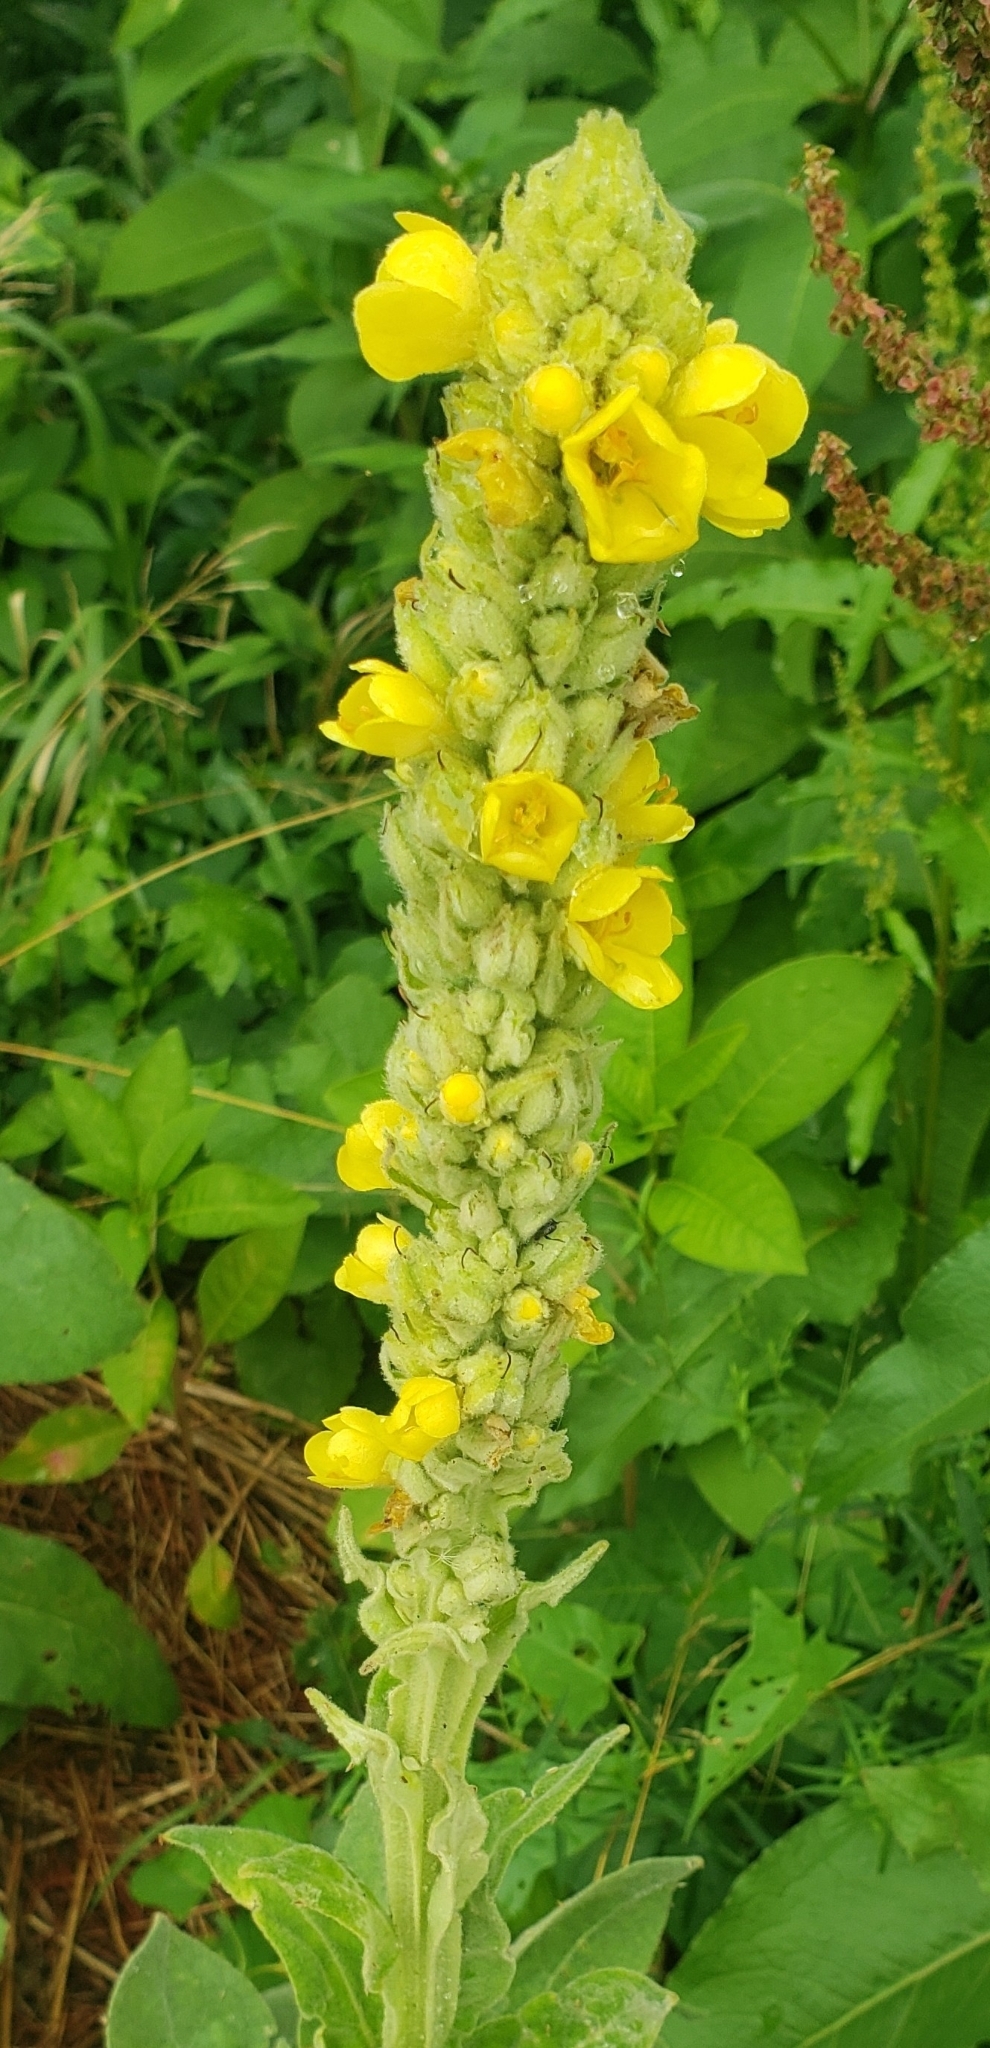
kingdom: Plantae
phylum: Tracheophyta
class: Magnoliopsida
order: Lamiales
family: Scrophulariaceae
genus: Verbascum
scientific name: Verbascum thapsus
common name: Common mullein
